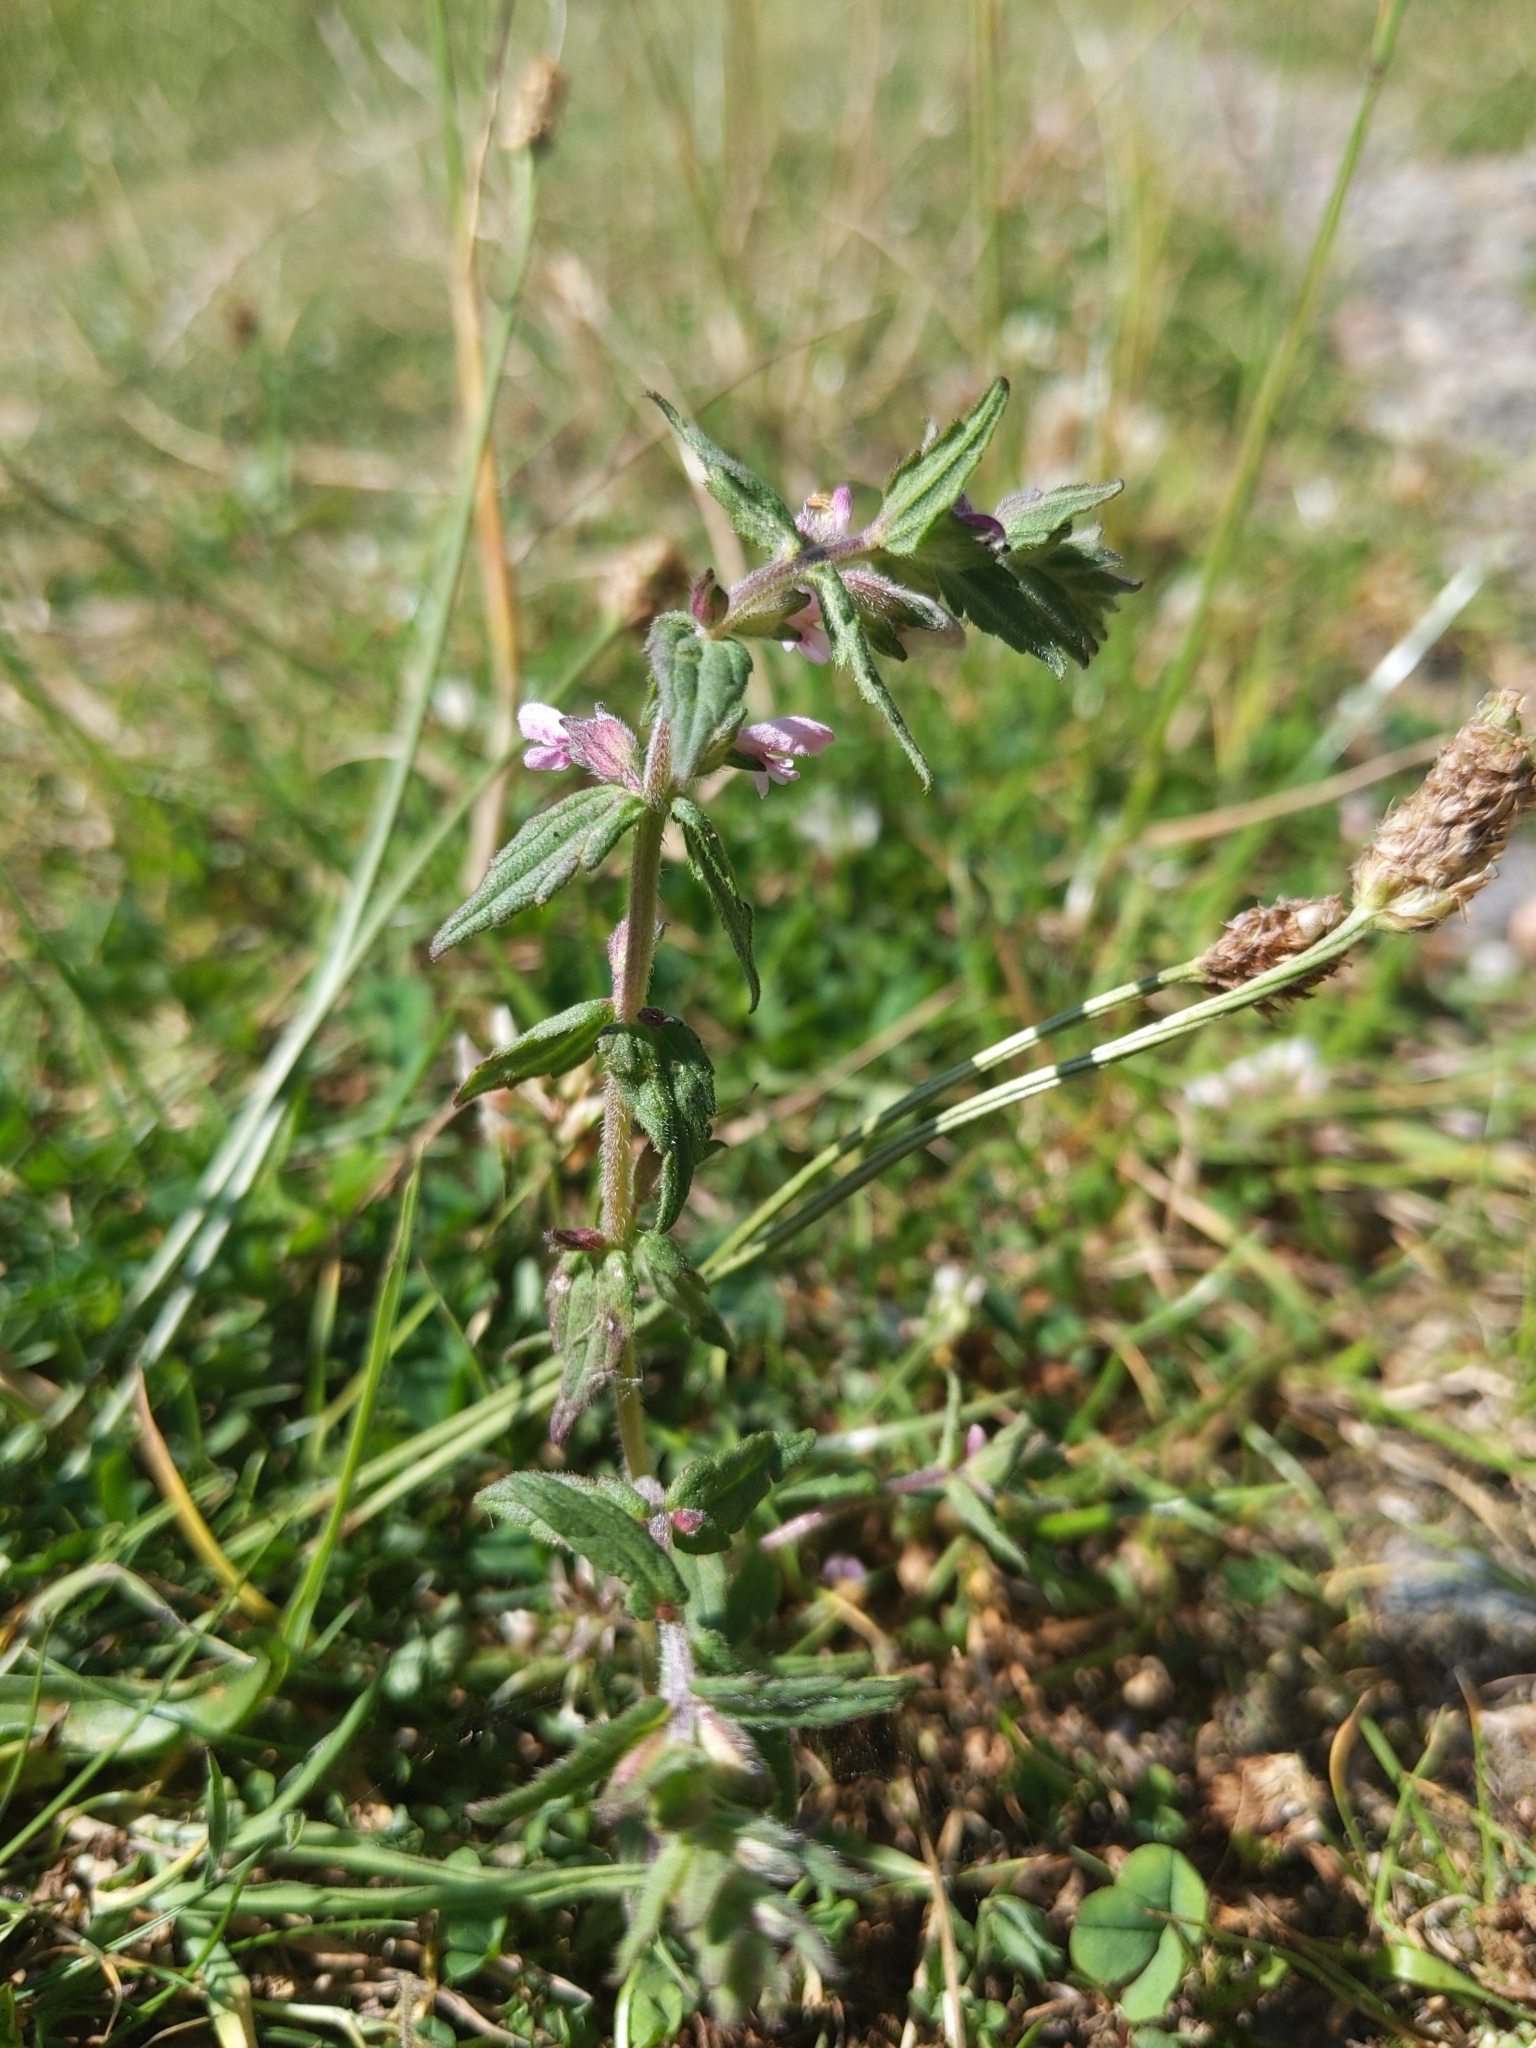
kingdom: Plantae
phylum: Tracheophyta
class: Magnoliopsida
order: Lamiales
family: Orobanchaceae
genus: Odontites
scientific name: Odontites vernus
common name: Red bartsia
